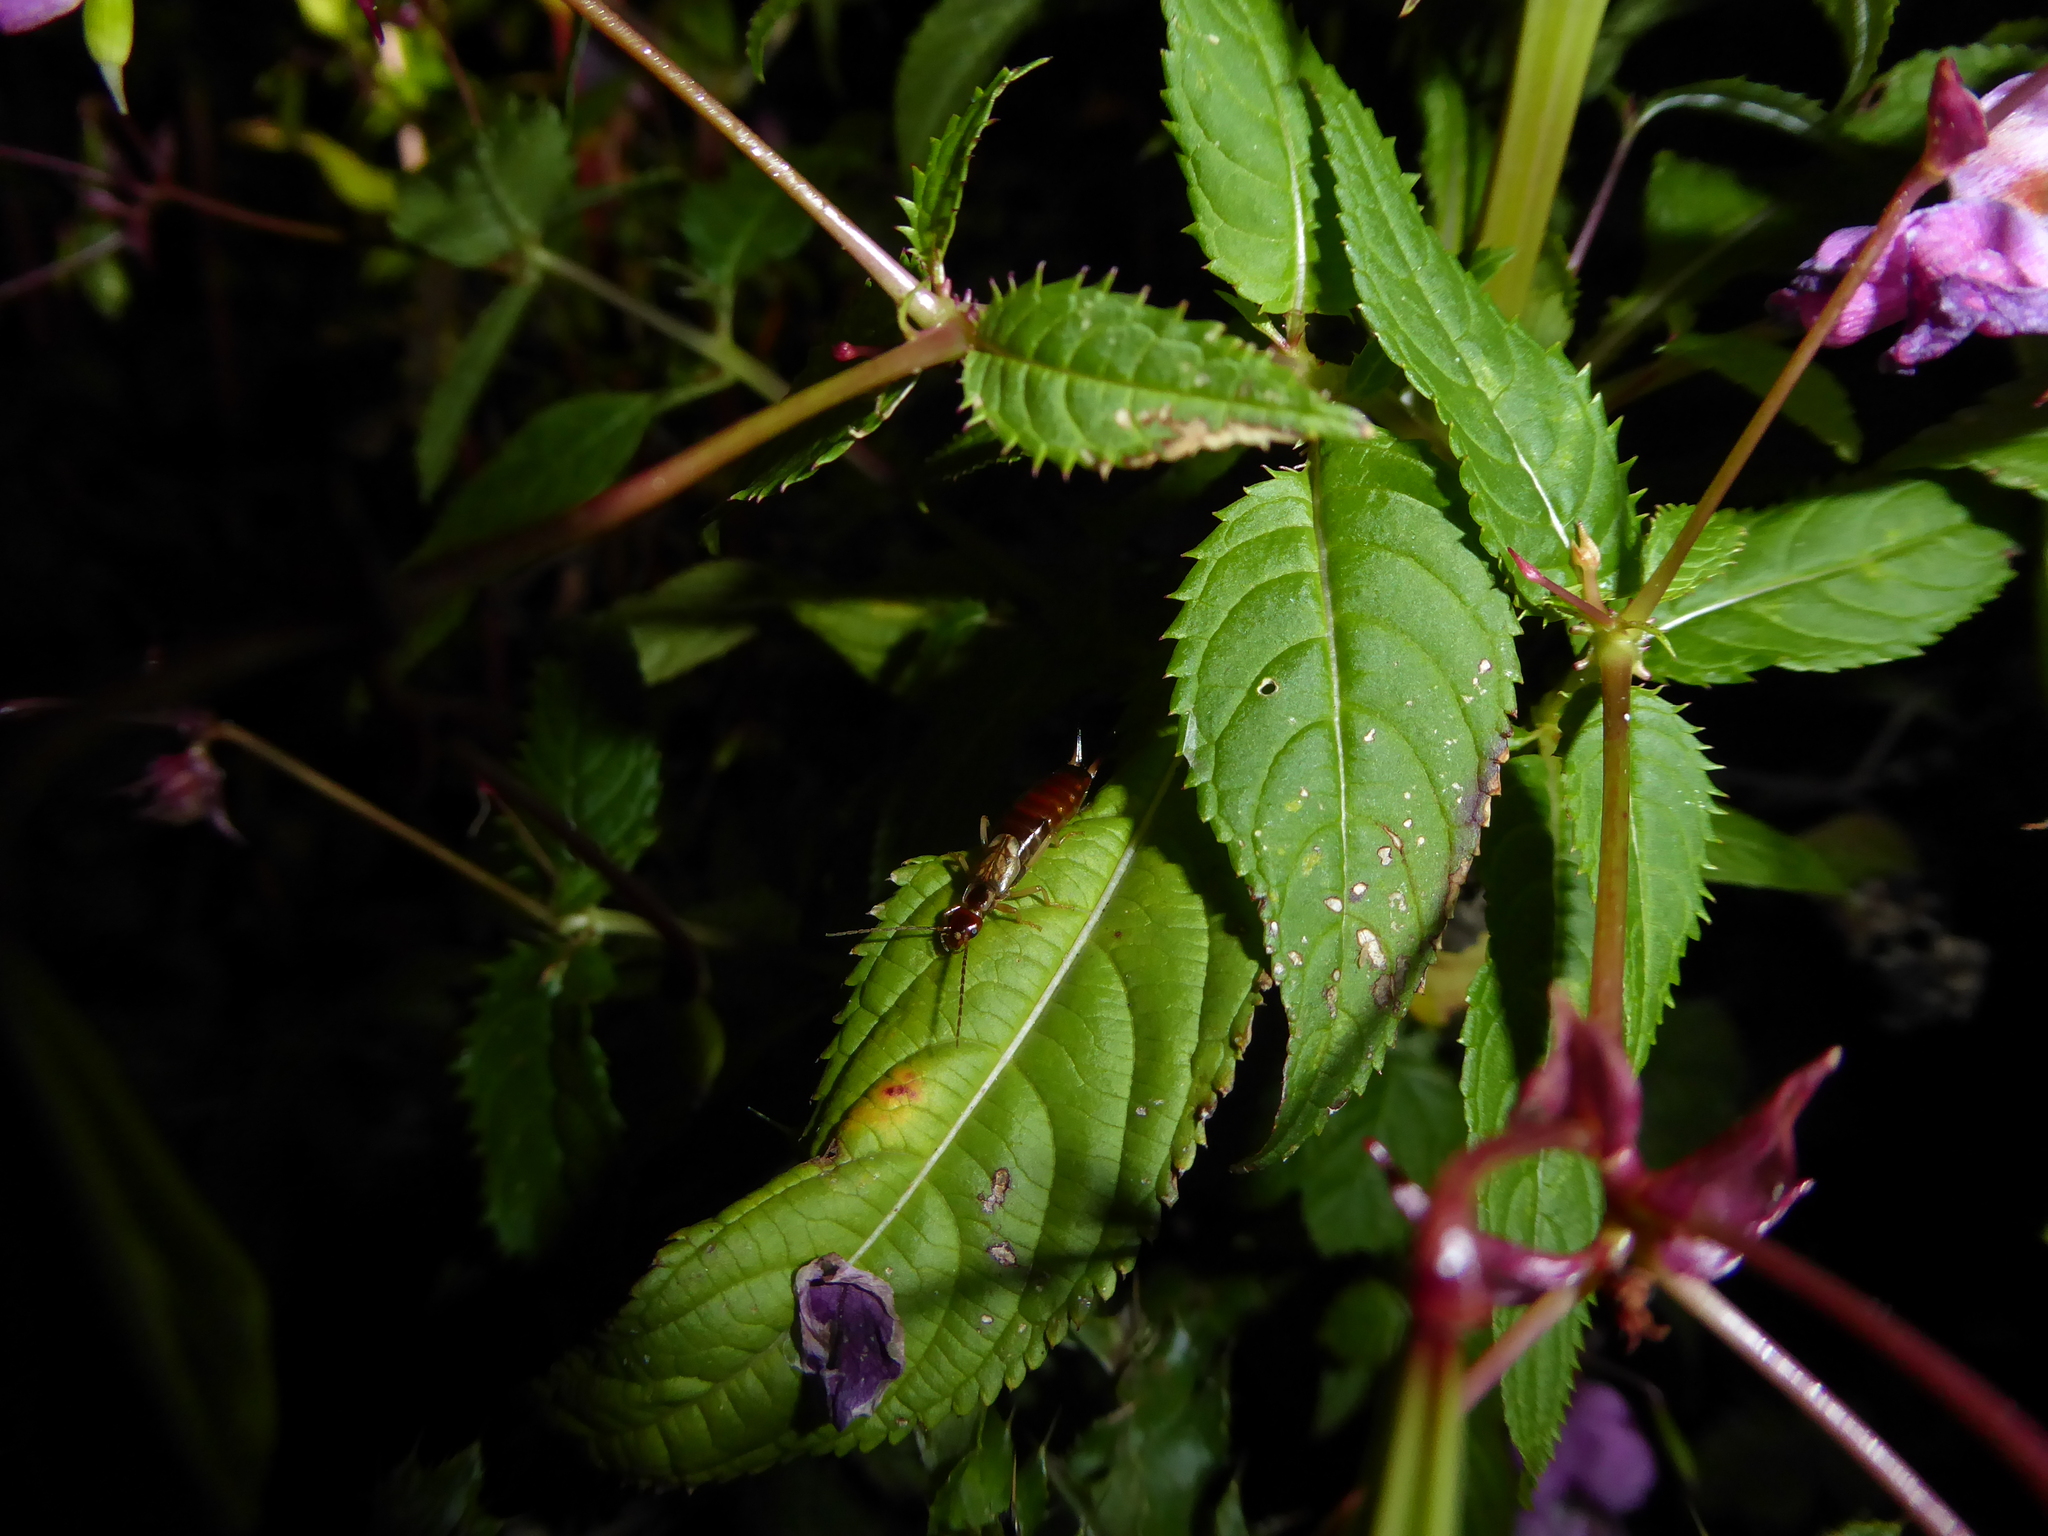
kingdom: Plantae
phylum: Tracheophyta
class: Magnoliopsida
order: Ericales
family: Balsaminaceae
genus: Impatiens
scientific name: Impatiens glandulifera
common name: Himalayan balsam
